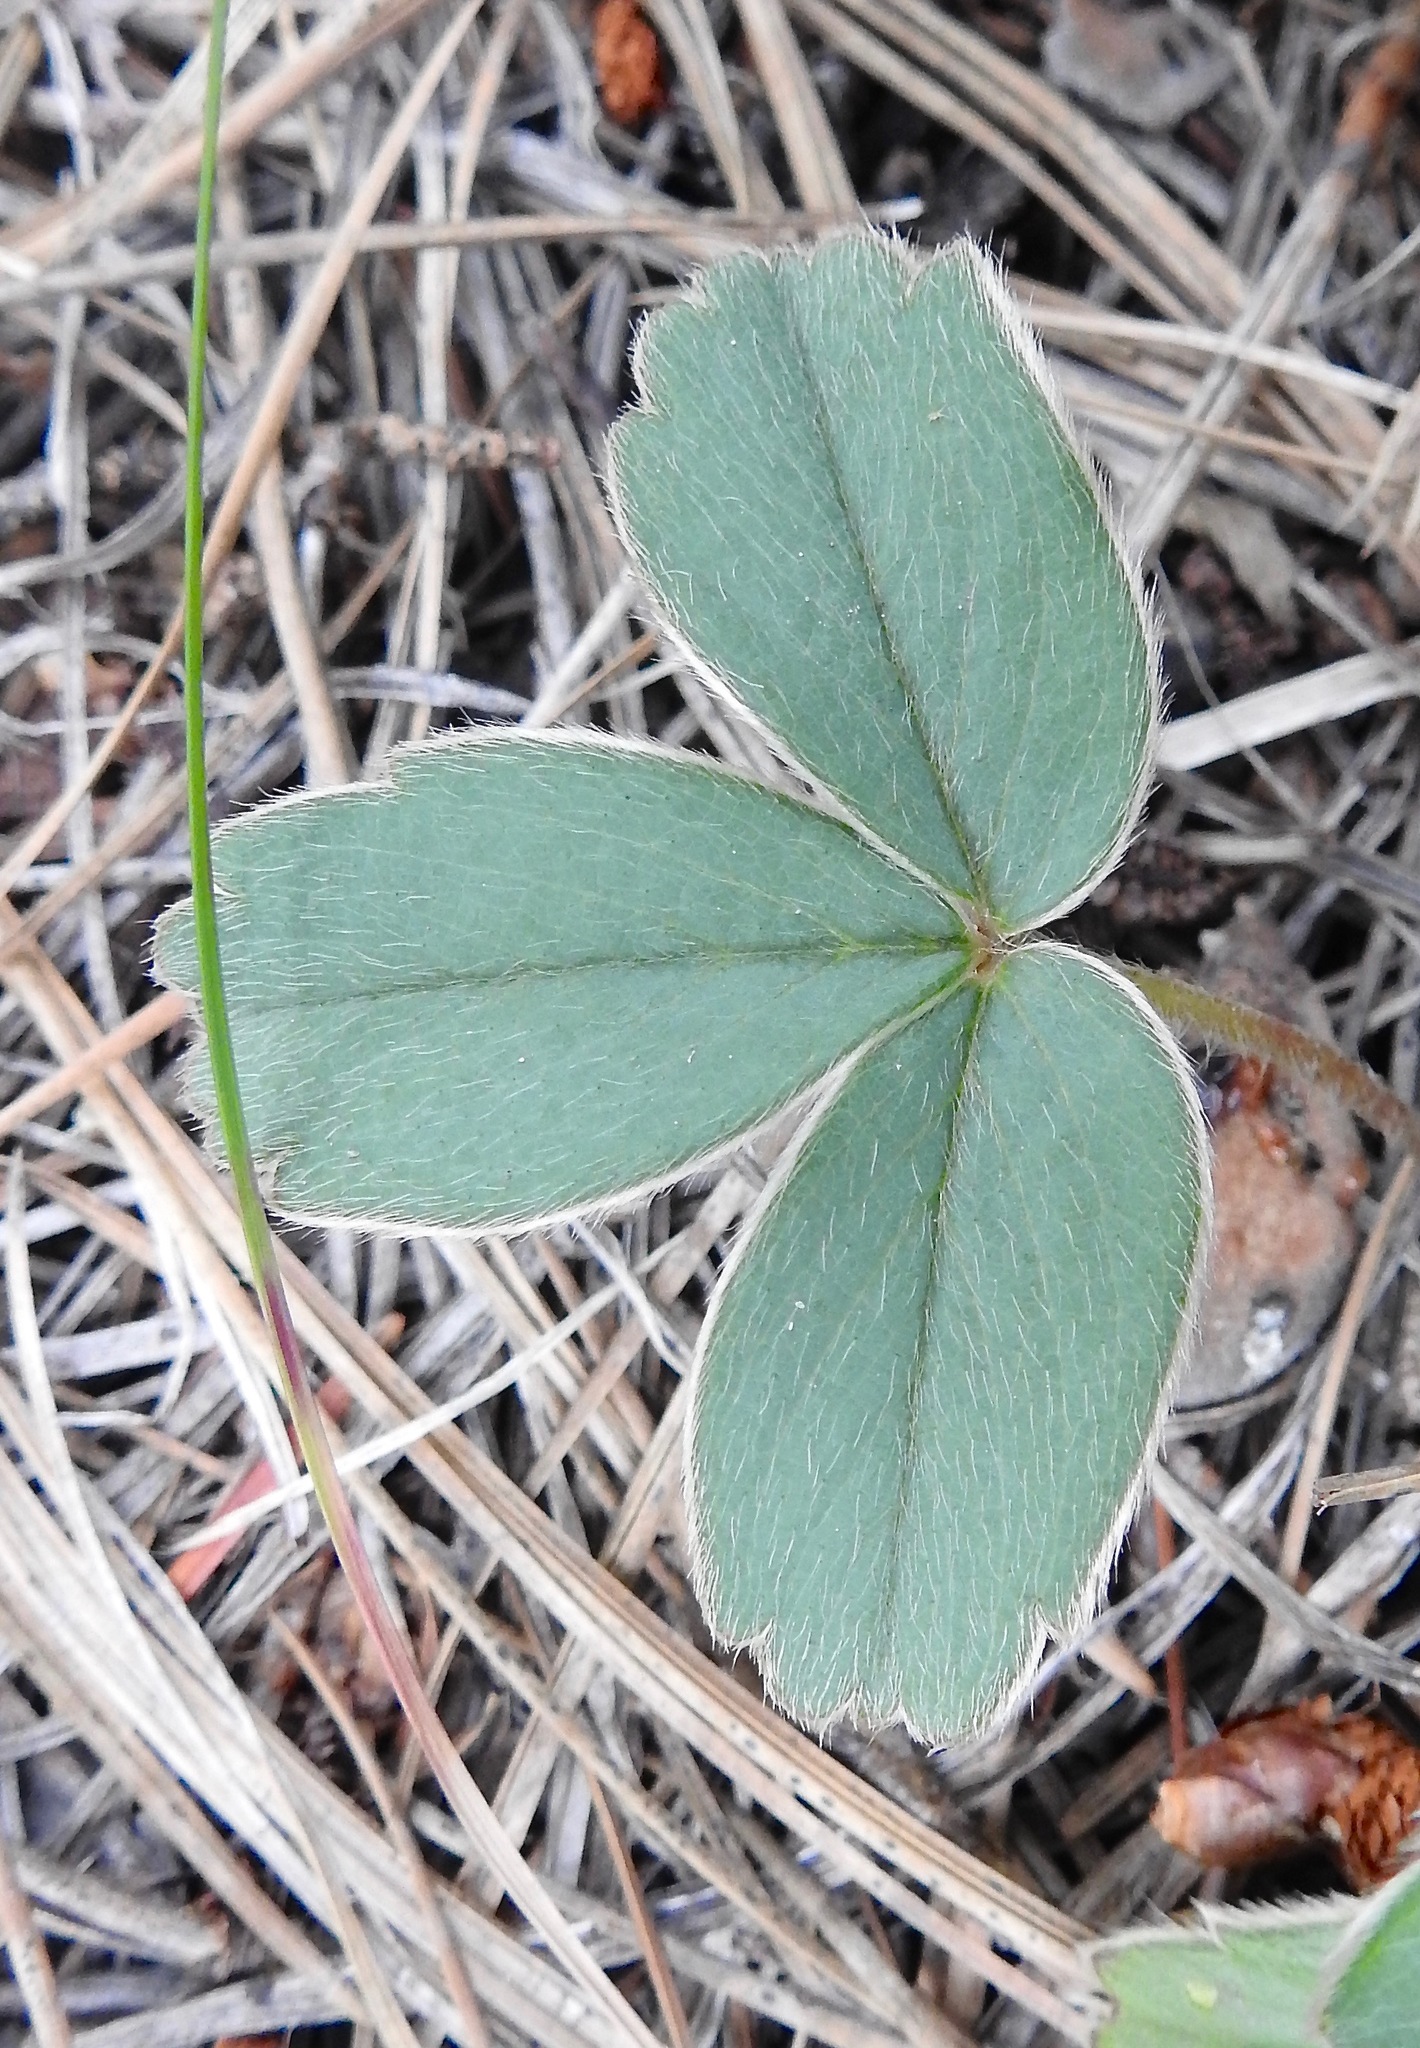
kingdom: Plantae
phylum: Tracheophyta
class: Magnoliopsida
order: Rosales
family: Rosaceae
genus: Fragaria
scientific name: Fragaria virginiana
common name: Thickleaved wild strawberry
